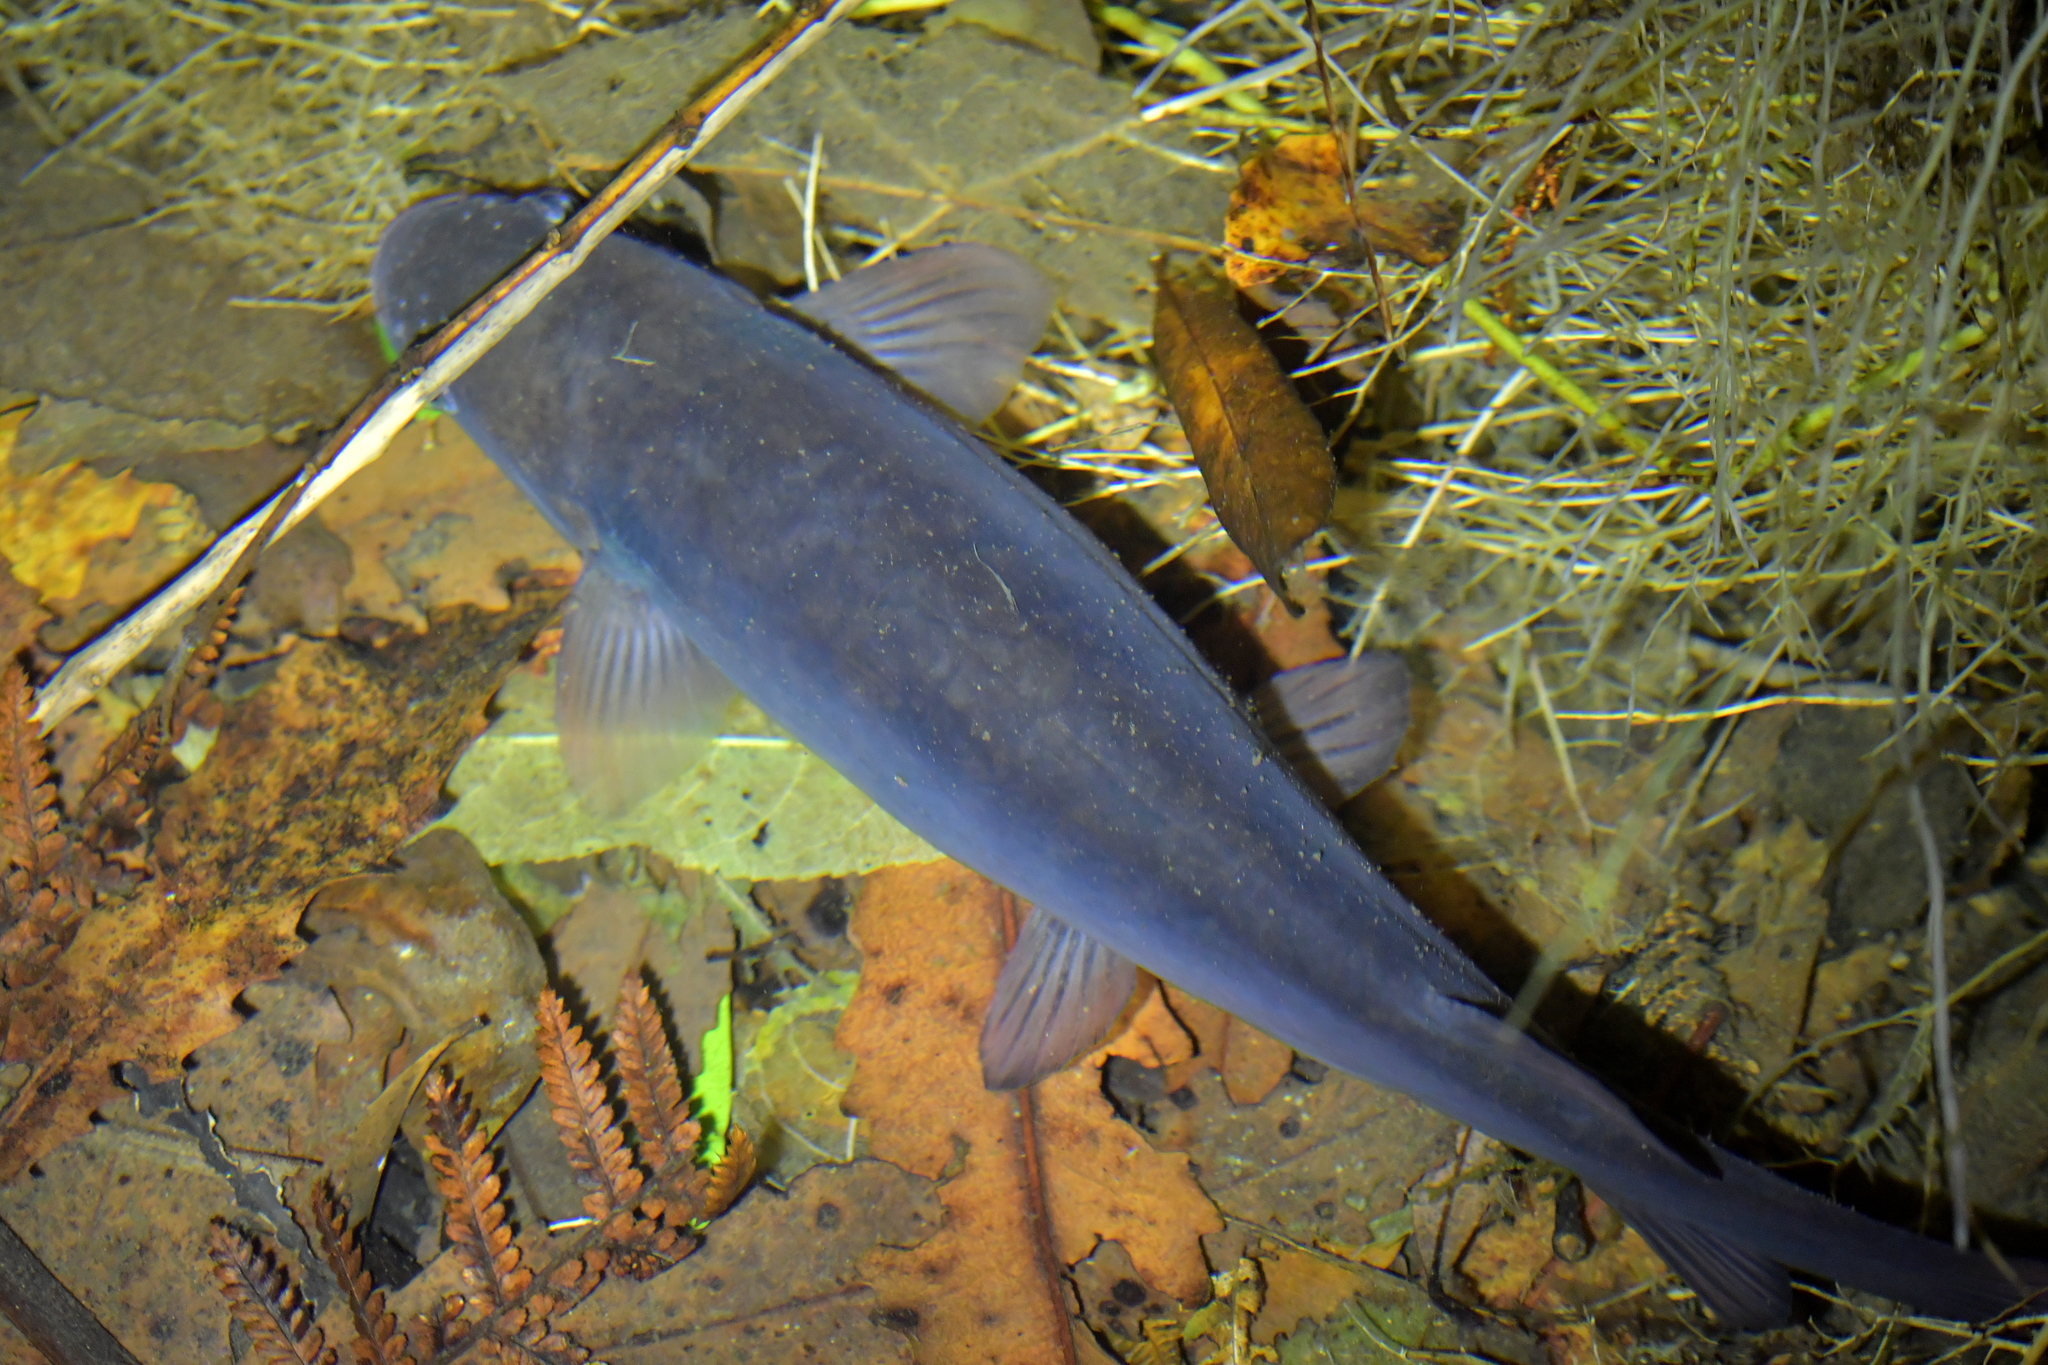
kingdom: Animalia
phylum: Chordata
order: Osmeriformes
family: Galaxiidae
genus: Galaxias
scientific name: Galaxias fasciatus
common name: Banded kokopu
